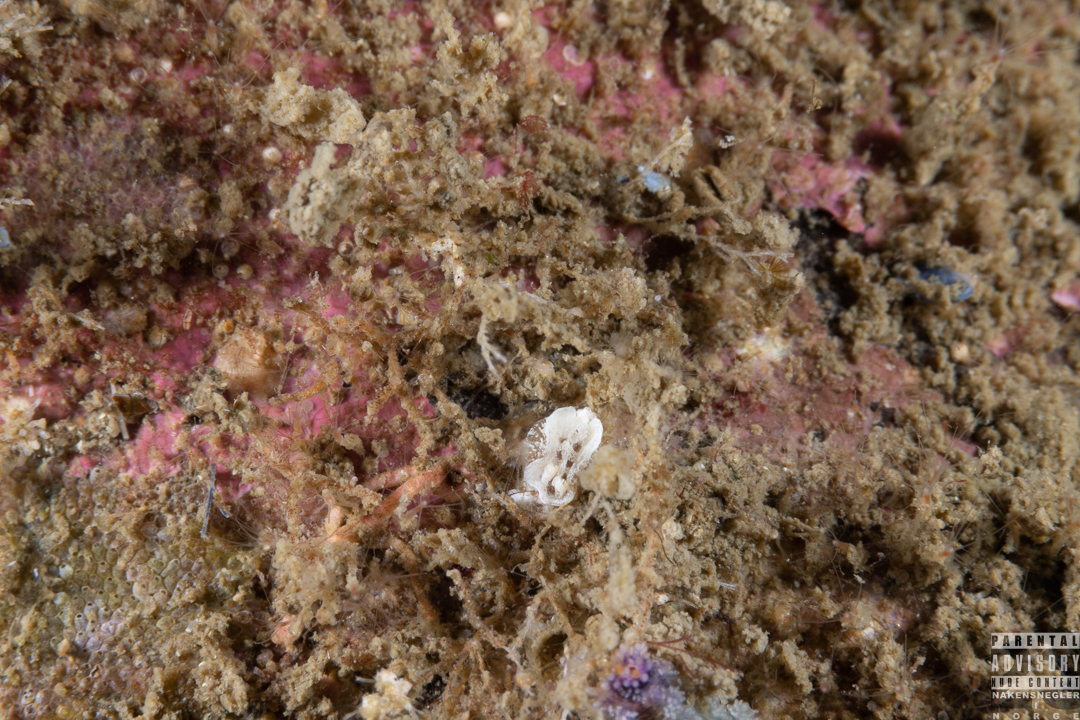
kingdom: Animalia
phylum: Mollusca
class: Gastropoda
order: Nudibranchia
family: Goniodorididae
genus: Pelagella
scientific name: Pelagella castanea
